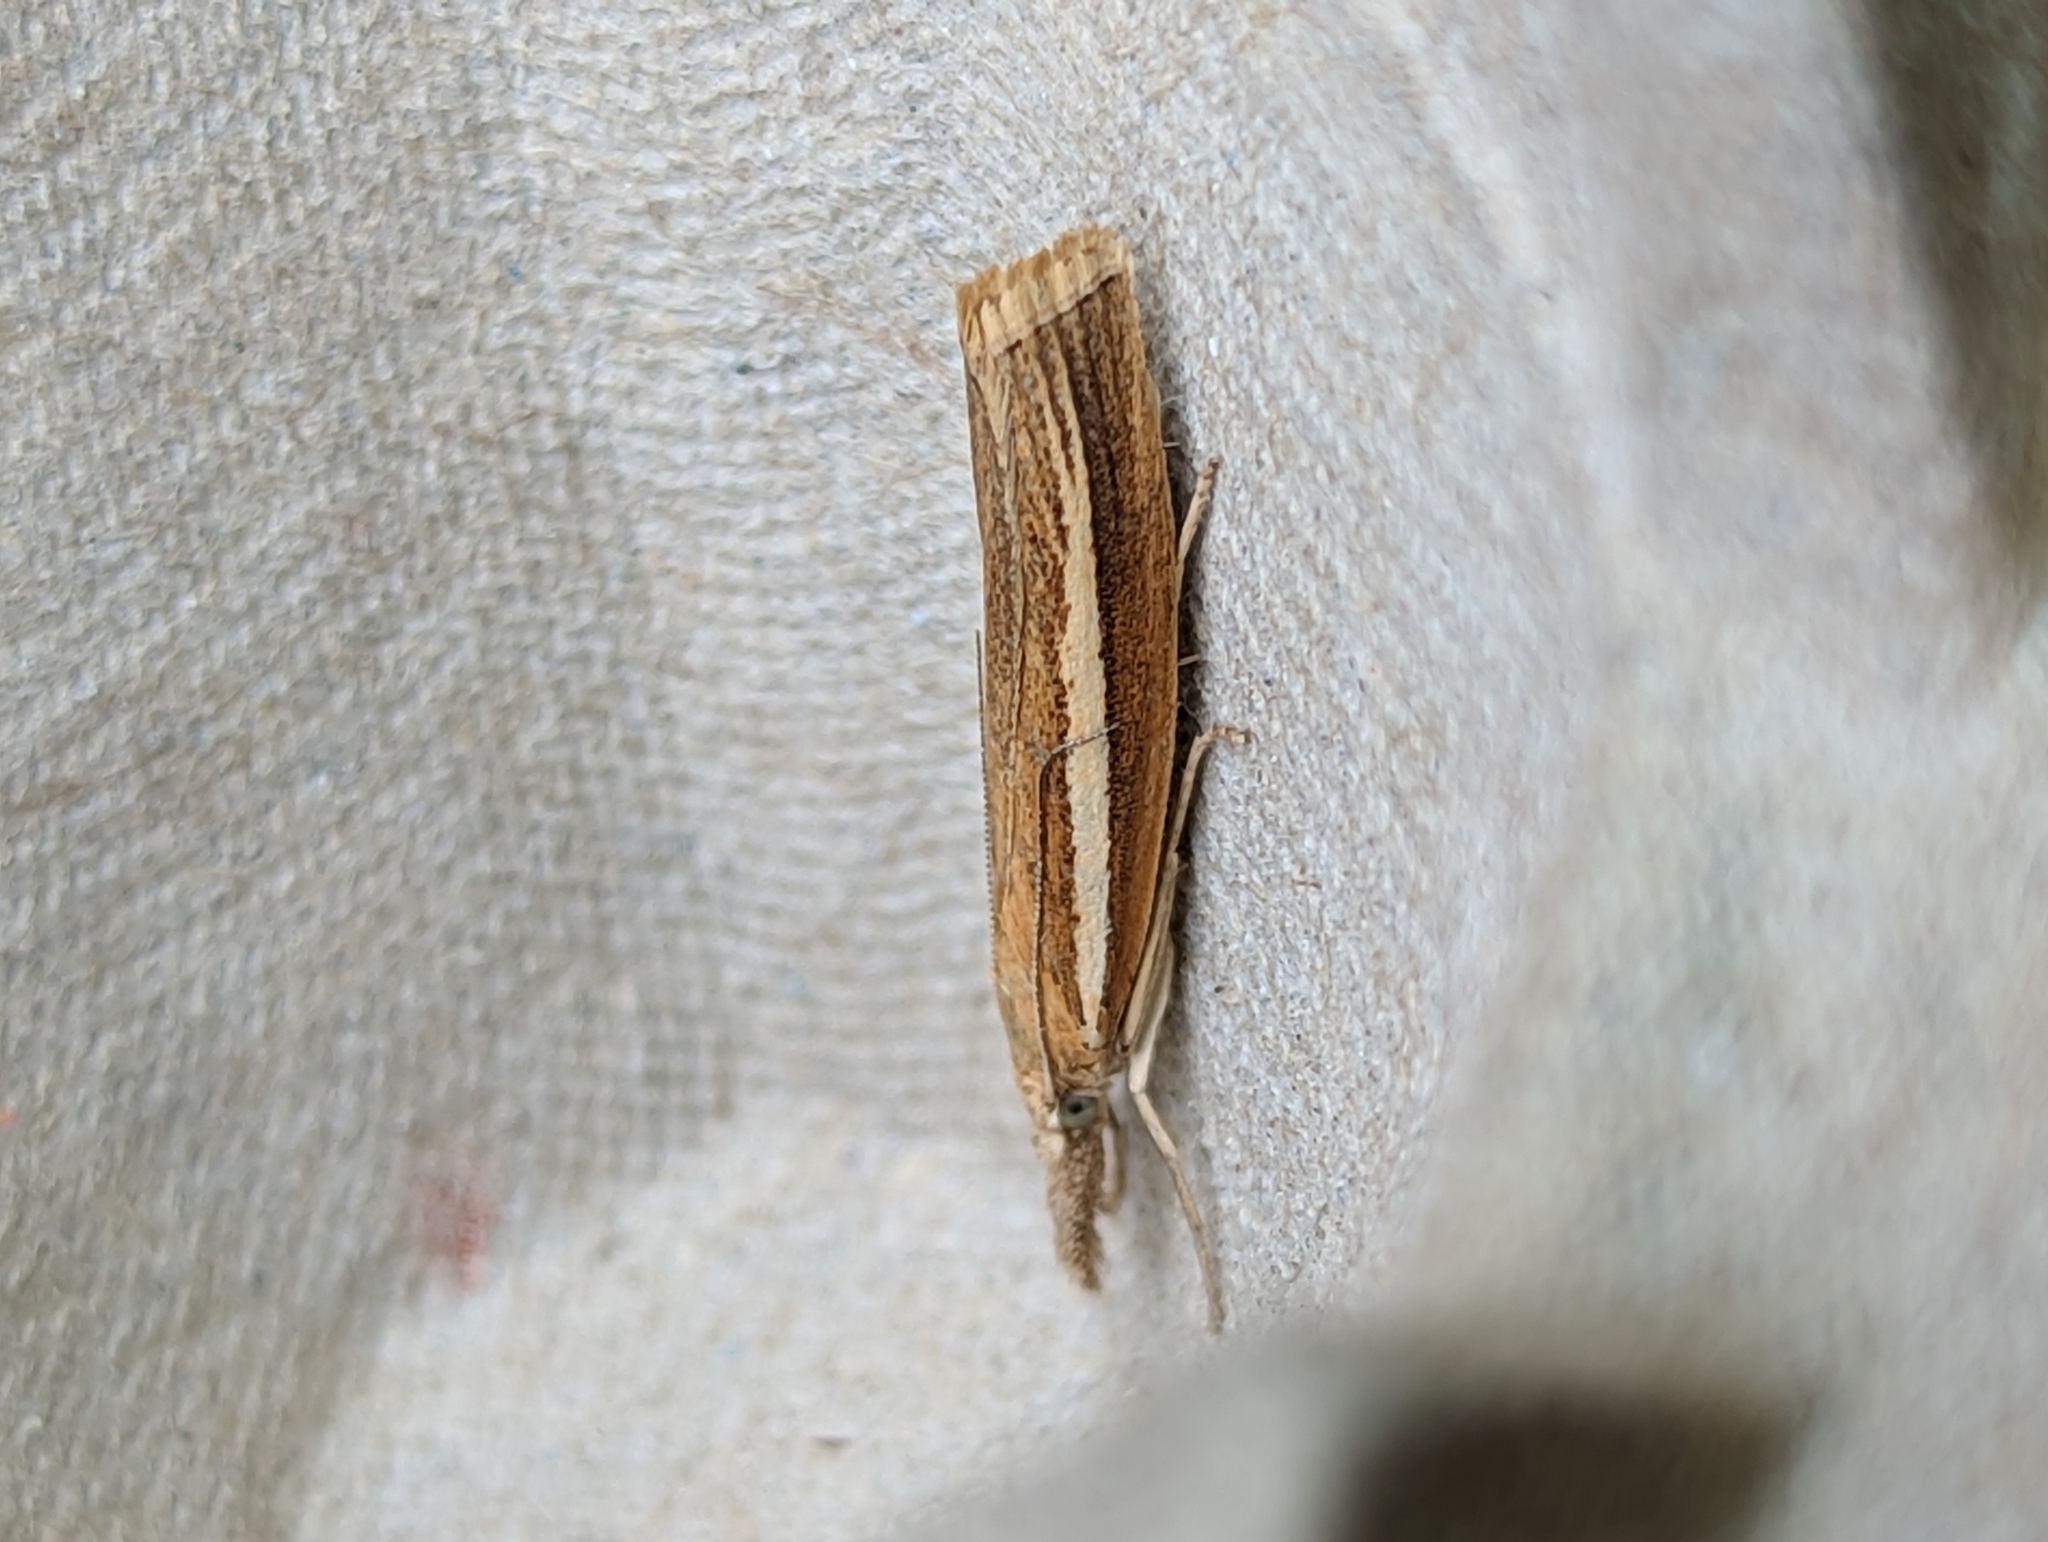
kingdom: Animalia
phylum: Arthropoda
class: Insecta
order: Lepidoptera
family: Crambidae
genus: Agriphila
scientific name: Agriphila tristellus
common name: Common grass-veneer
